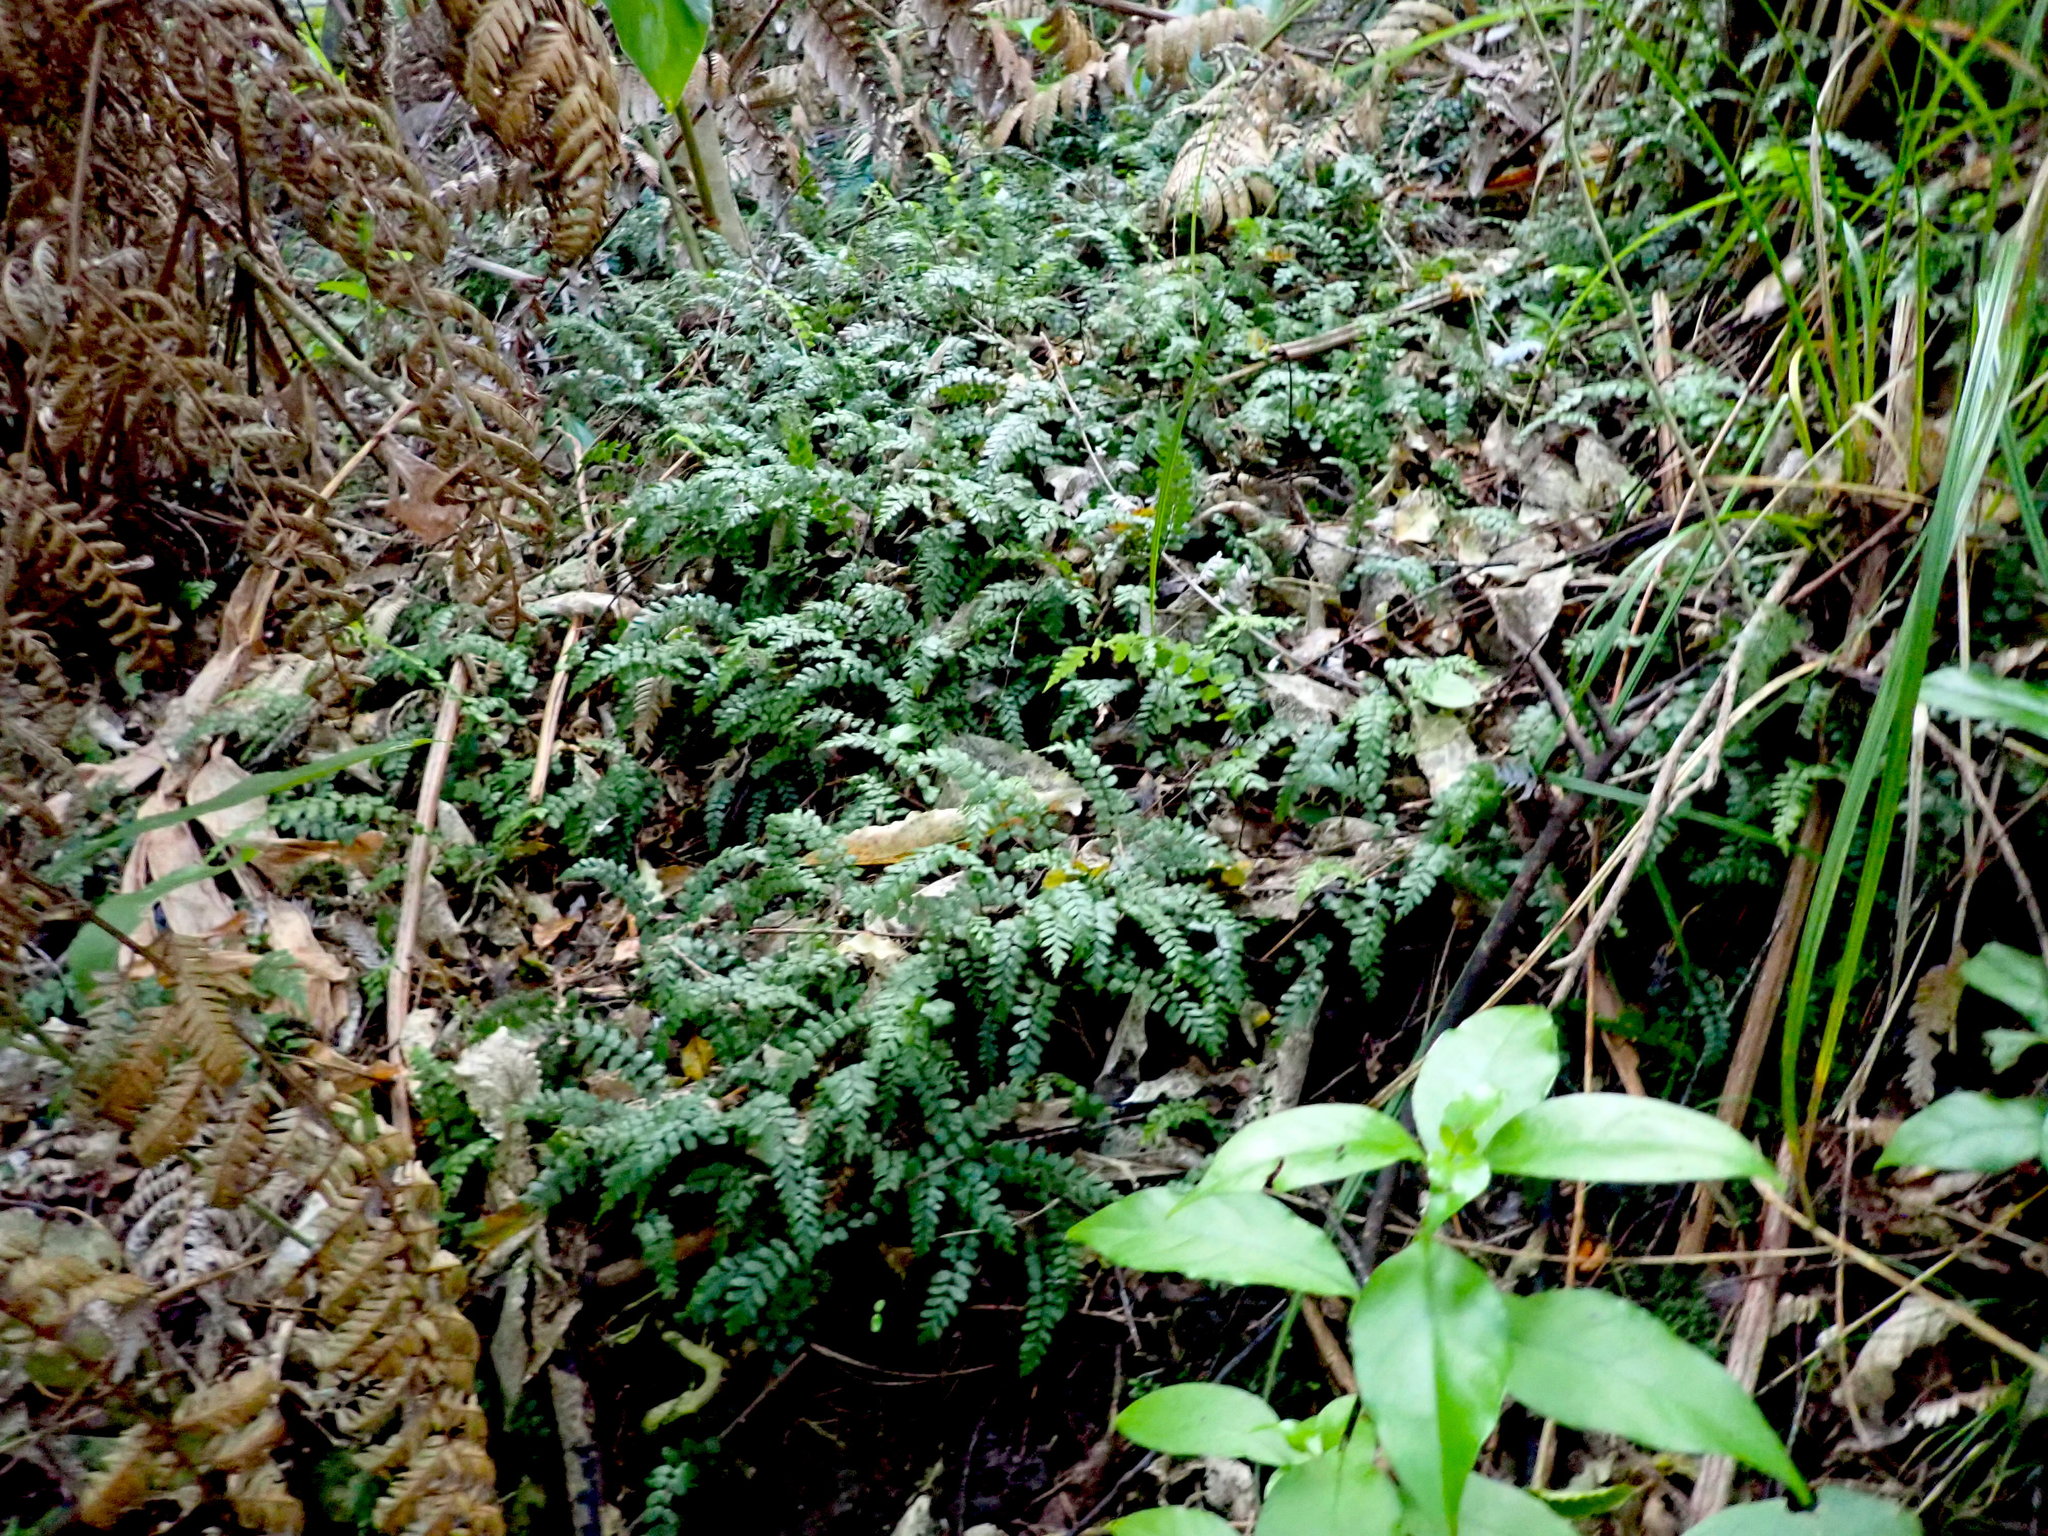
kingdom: Plantae
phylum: Tracheophyta
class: Polypodiopsida
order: Polypodiales
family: Blechnaceae
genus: Icarus
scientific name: Icarus filiformis
